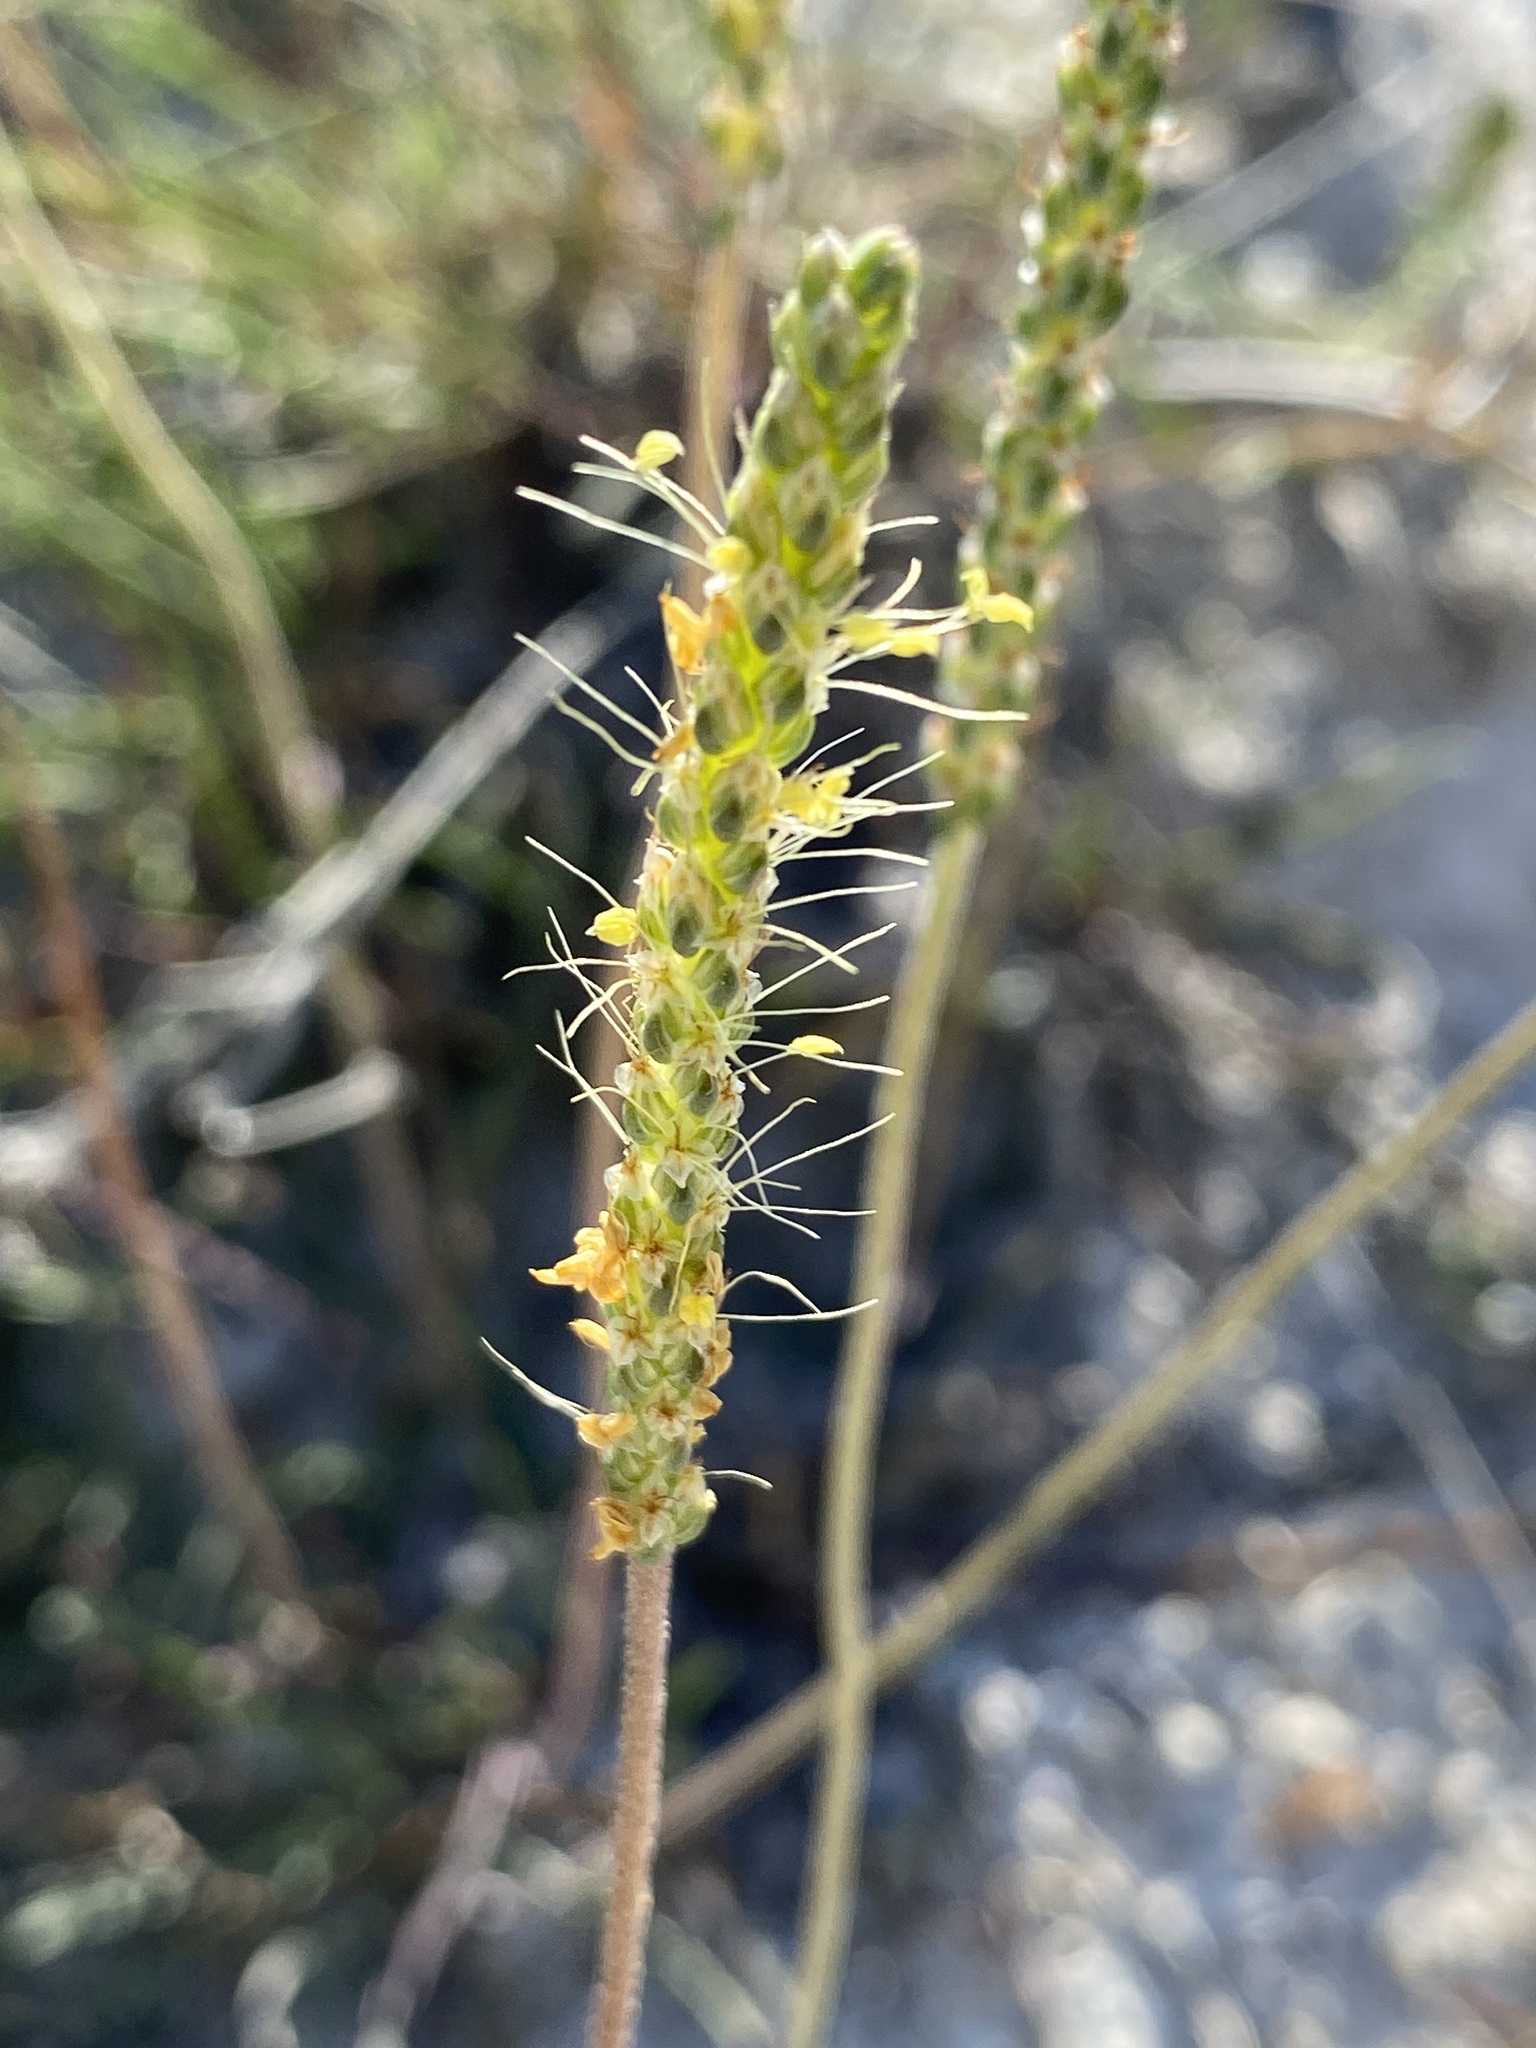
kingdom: Plantae
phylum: Tracheophyta
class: Magnoliopsida
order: Lamiales
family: Plantaginaceae
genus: Plantago
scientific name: Plantago salsa
